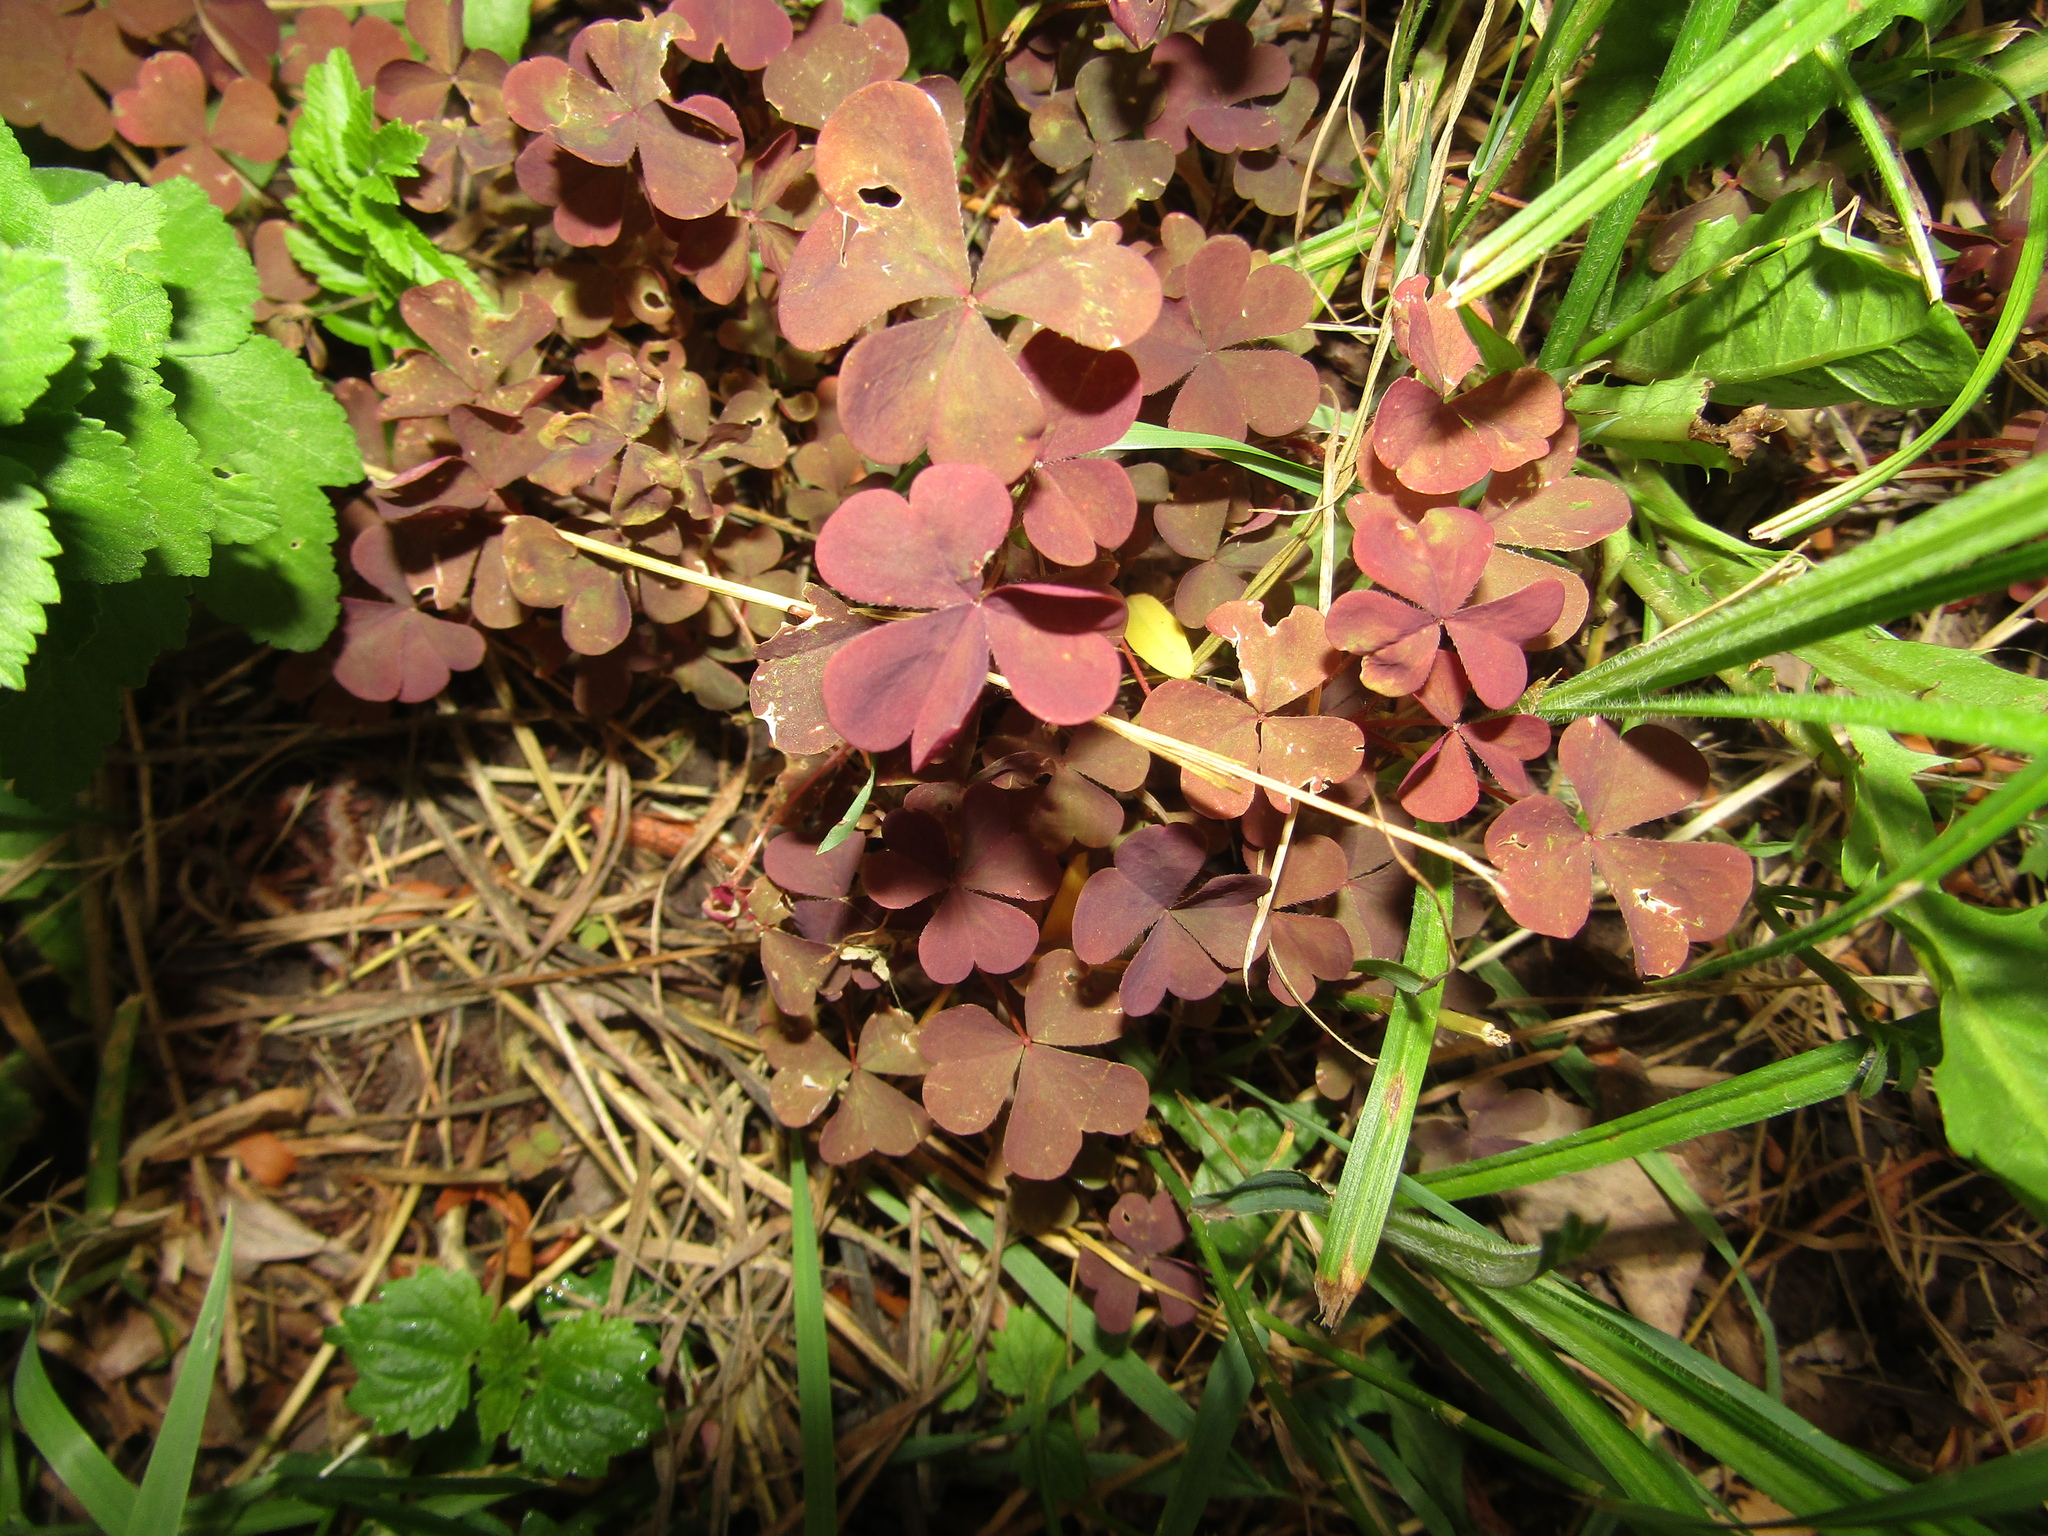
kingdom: Plantae
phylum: Tracheophyta
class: Magnoliopsida
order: Oxalidales
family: Oxalidaceae
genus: Oxalis
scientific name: Oxalis stricta
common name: Upright yellow-sorrel
